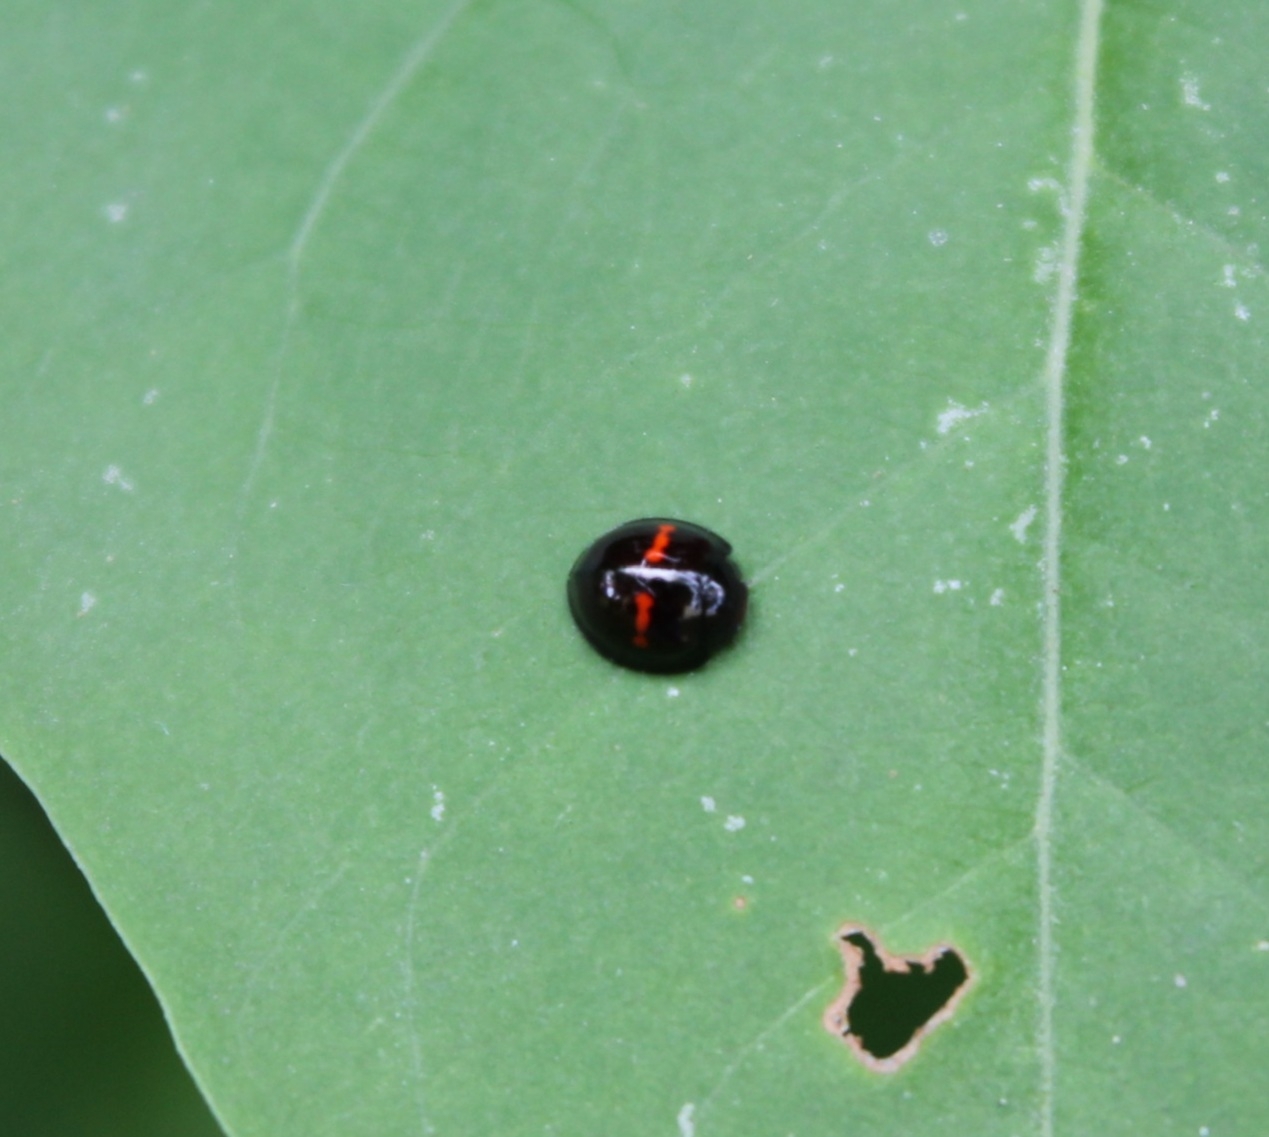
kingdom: Animalia
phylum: Arthropoda
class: Insecta
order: Coleoptera
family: Coccinellidae
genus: Chilocorus
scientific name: Chilocorus bipustulatus
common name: Heather ladybird
